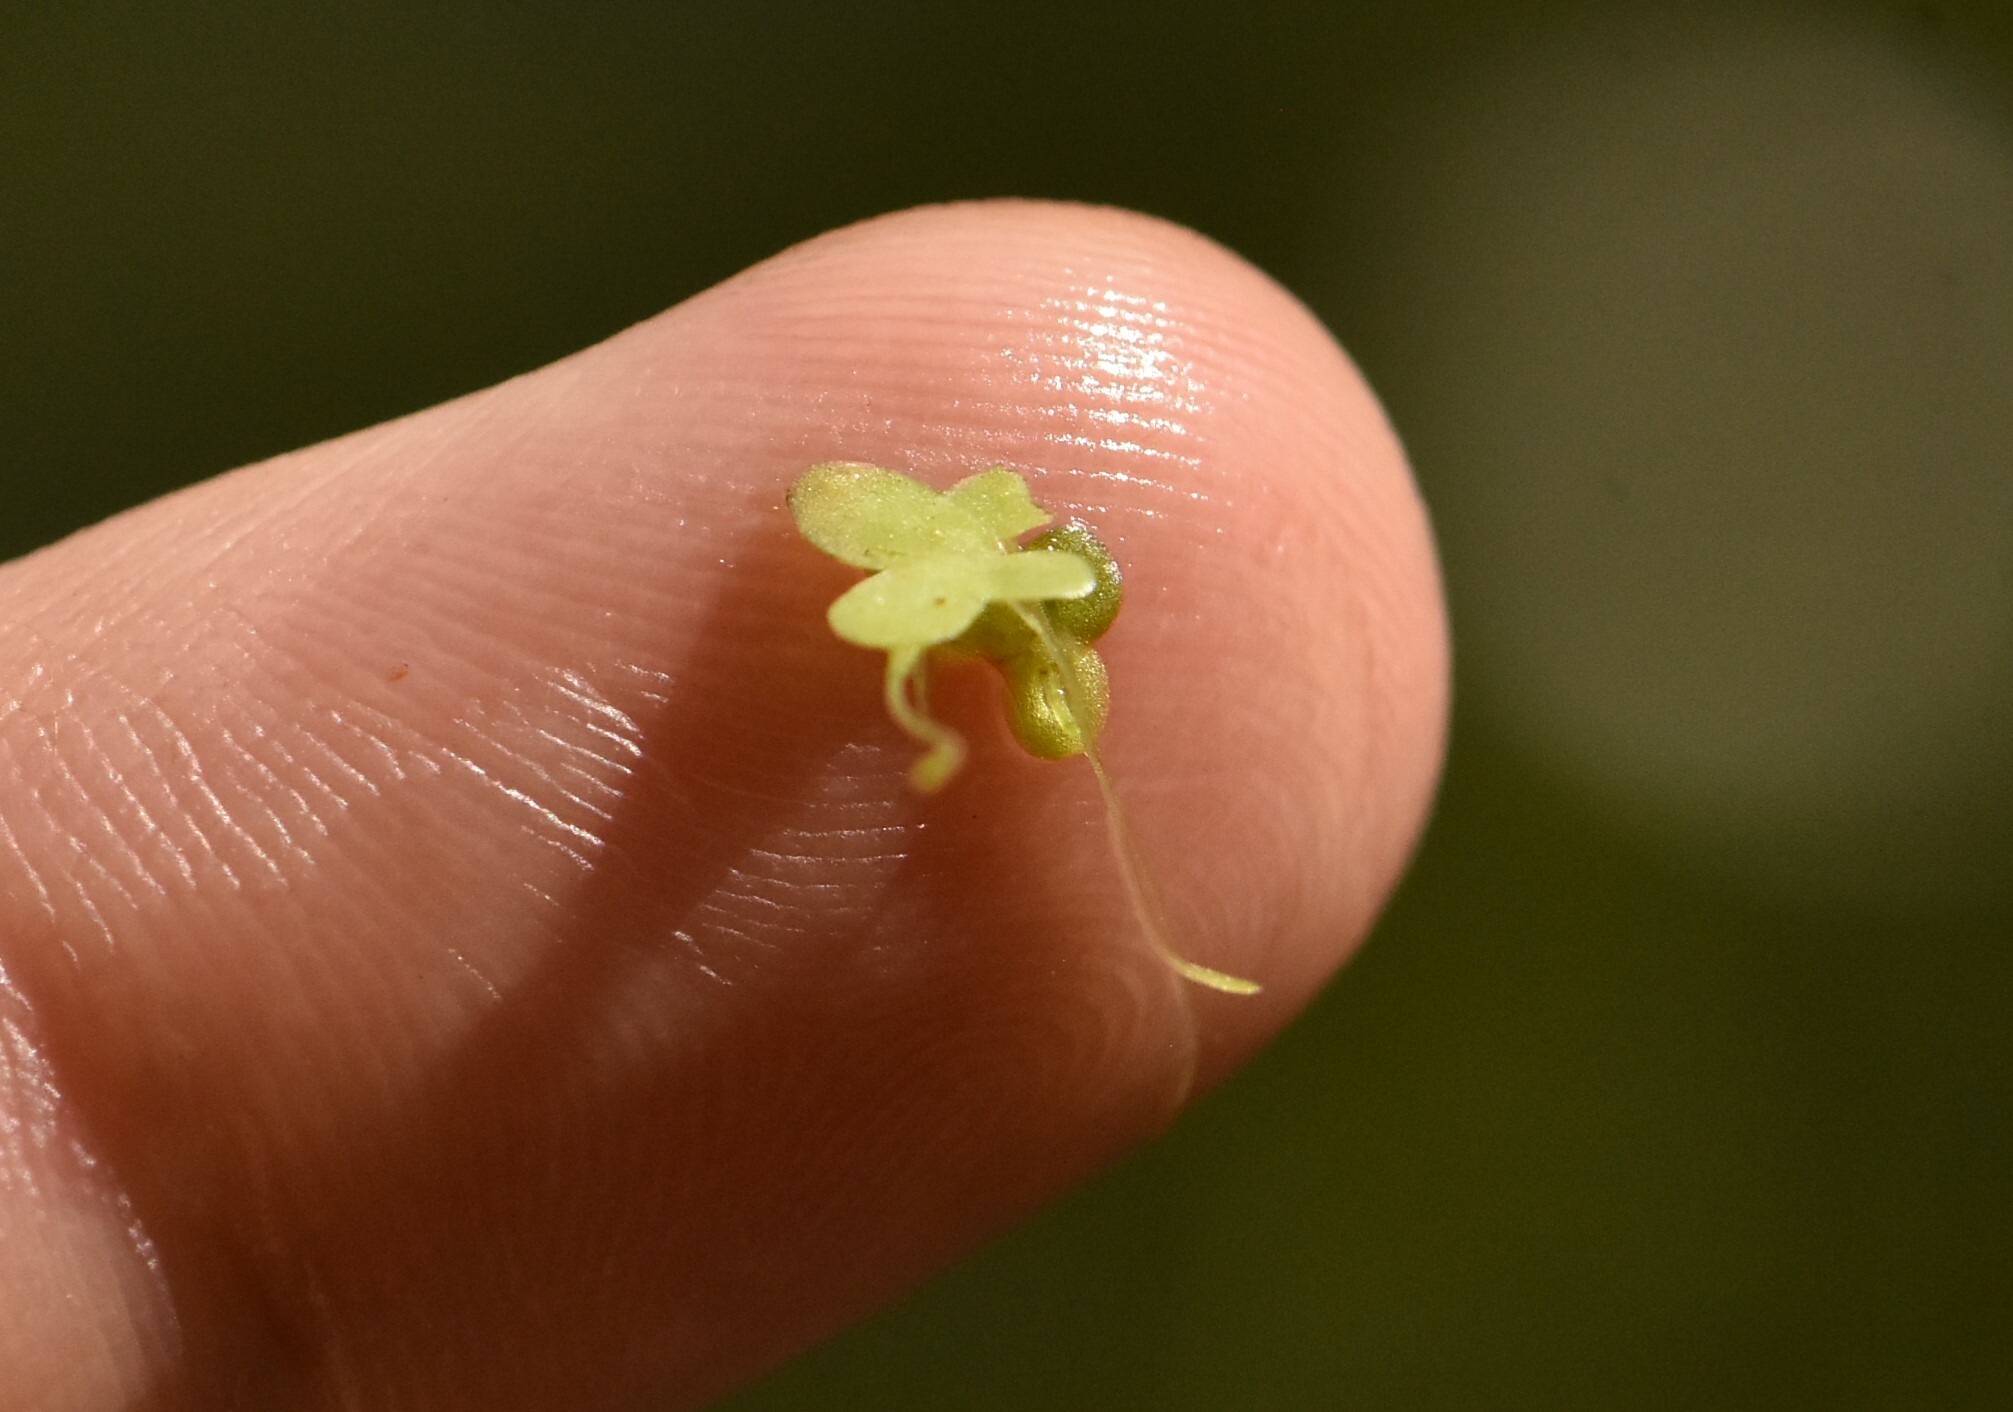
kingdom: Plantae
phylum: Tracheophyta
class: Liliopsida
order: Alismatales
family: Araceae
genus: Lemna
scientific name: Lemna minor
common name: Common duckweed
